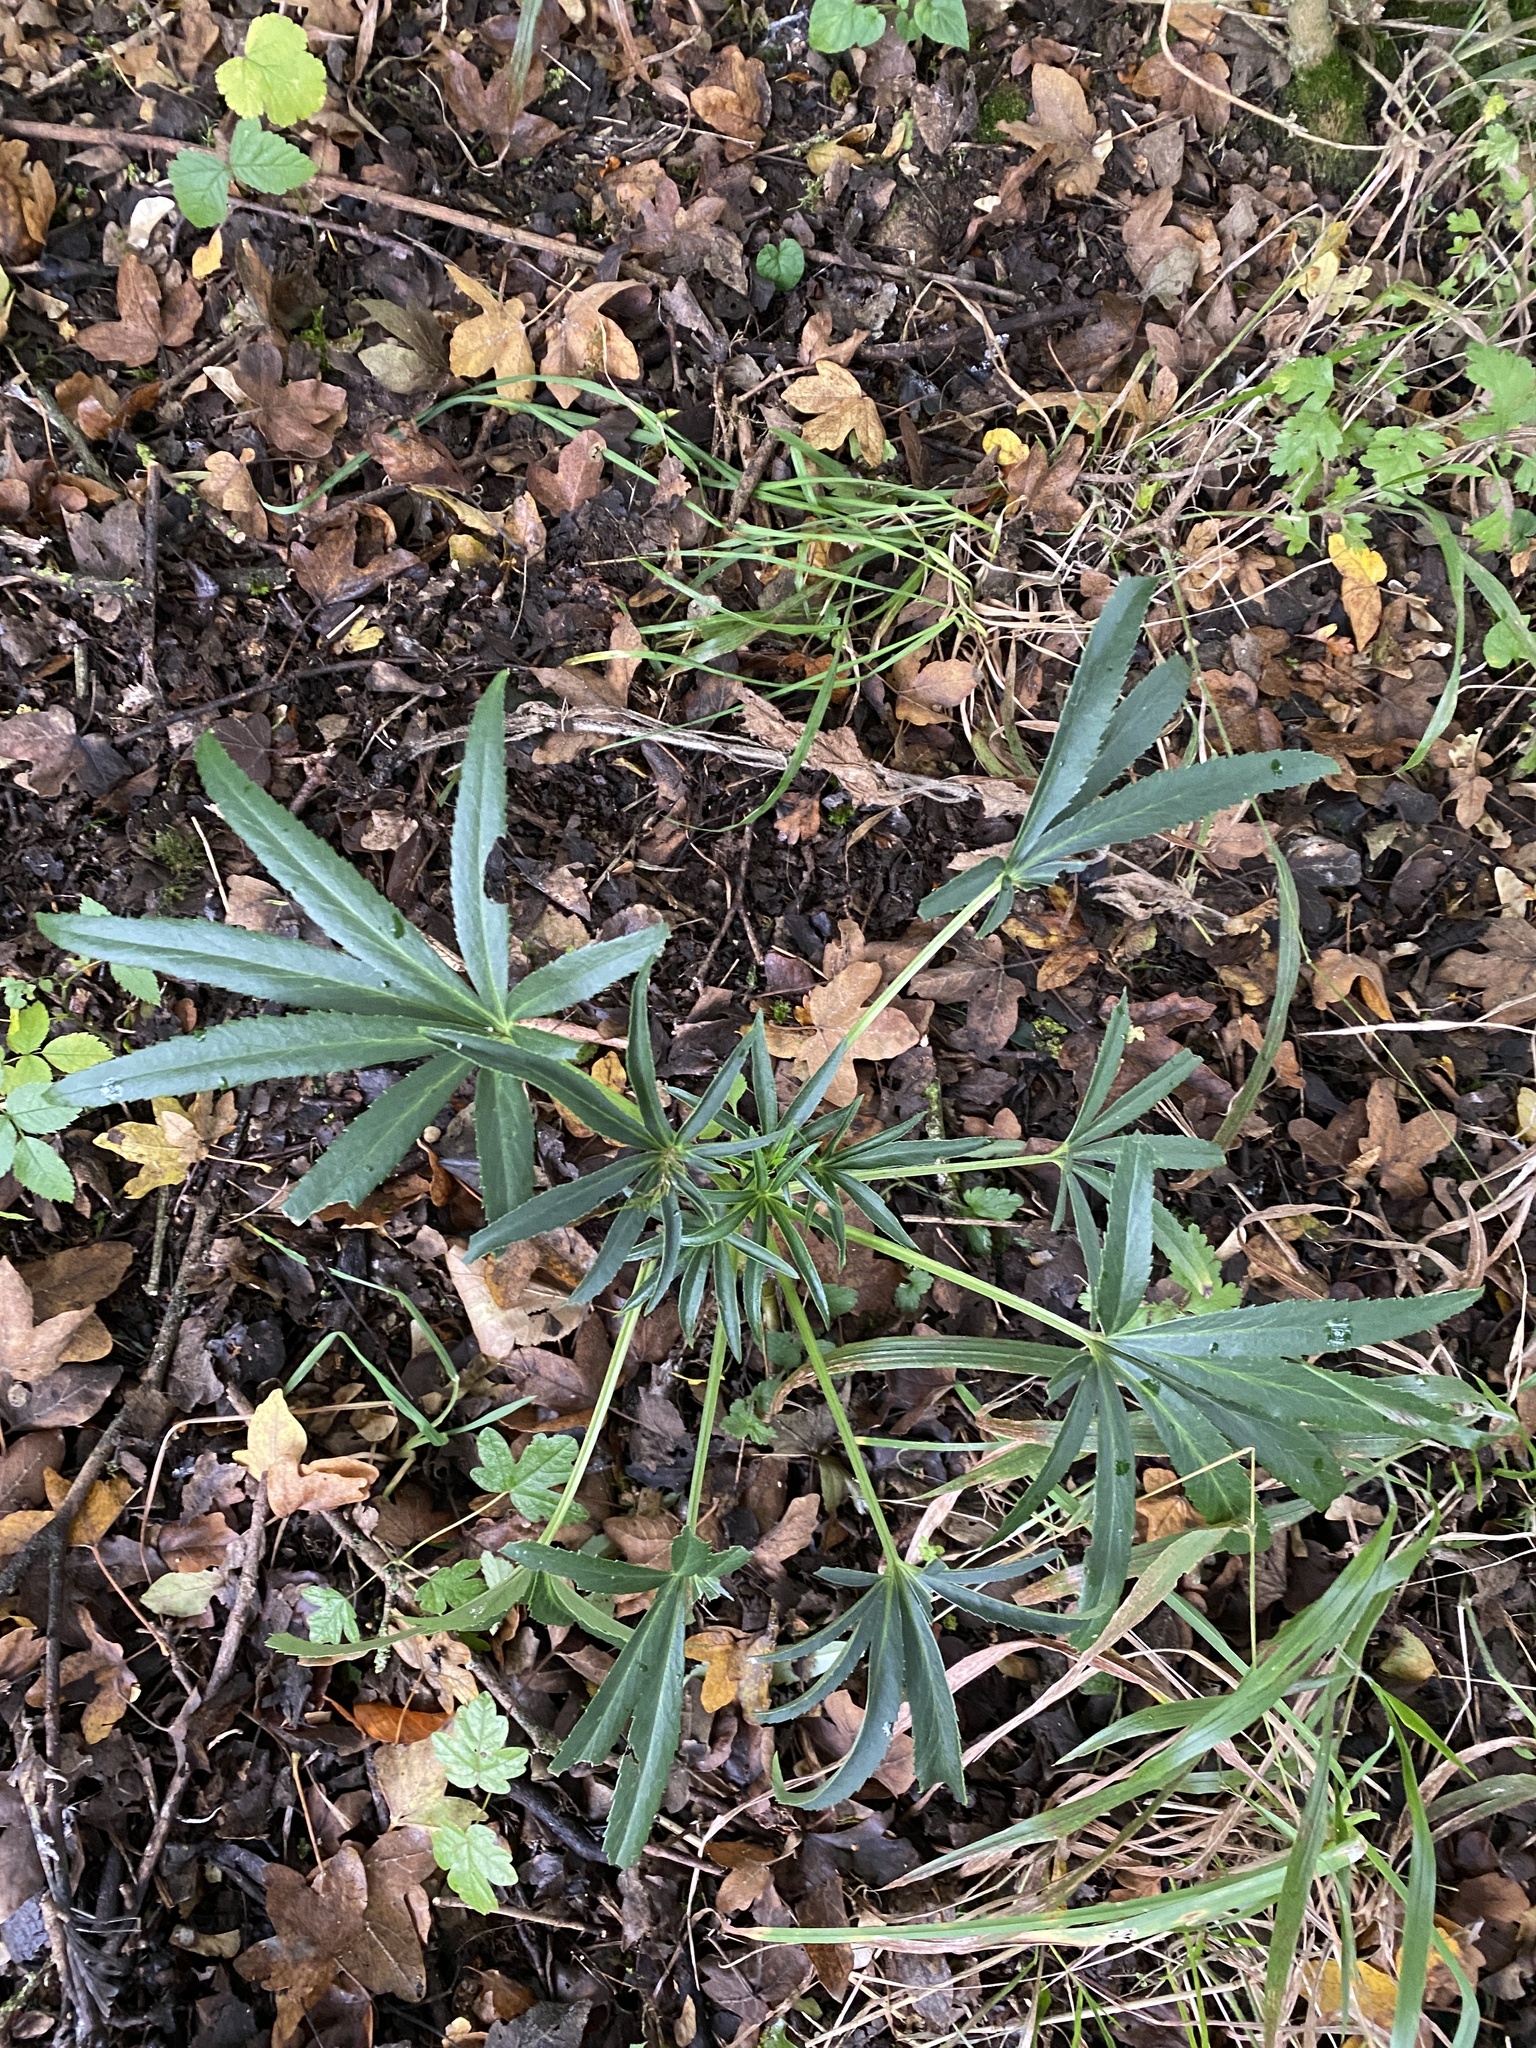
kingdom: Plantae
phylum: Tracheophyta
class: Magnoliopsida
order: Ranunculales
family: Ranunculaceae
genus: Helleborus
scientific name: Helleborus foetidus
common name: Stinking hellebore
